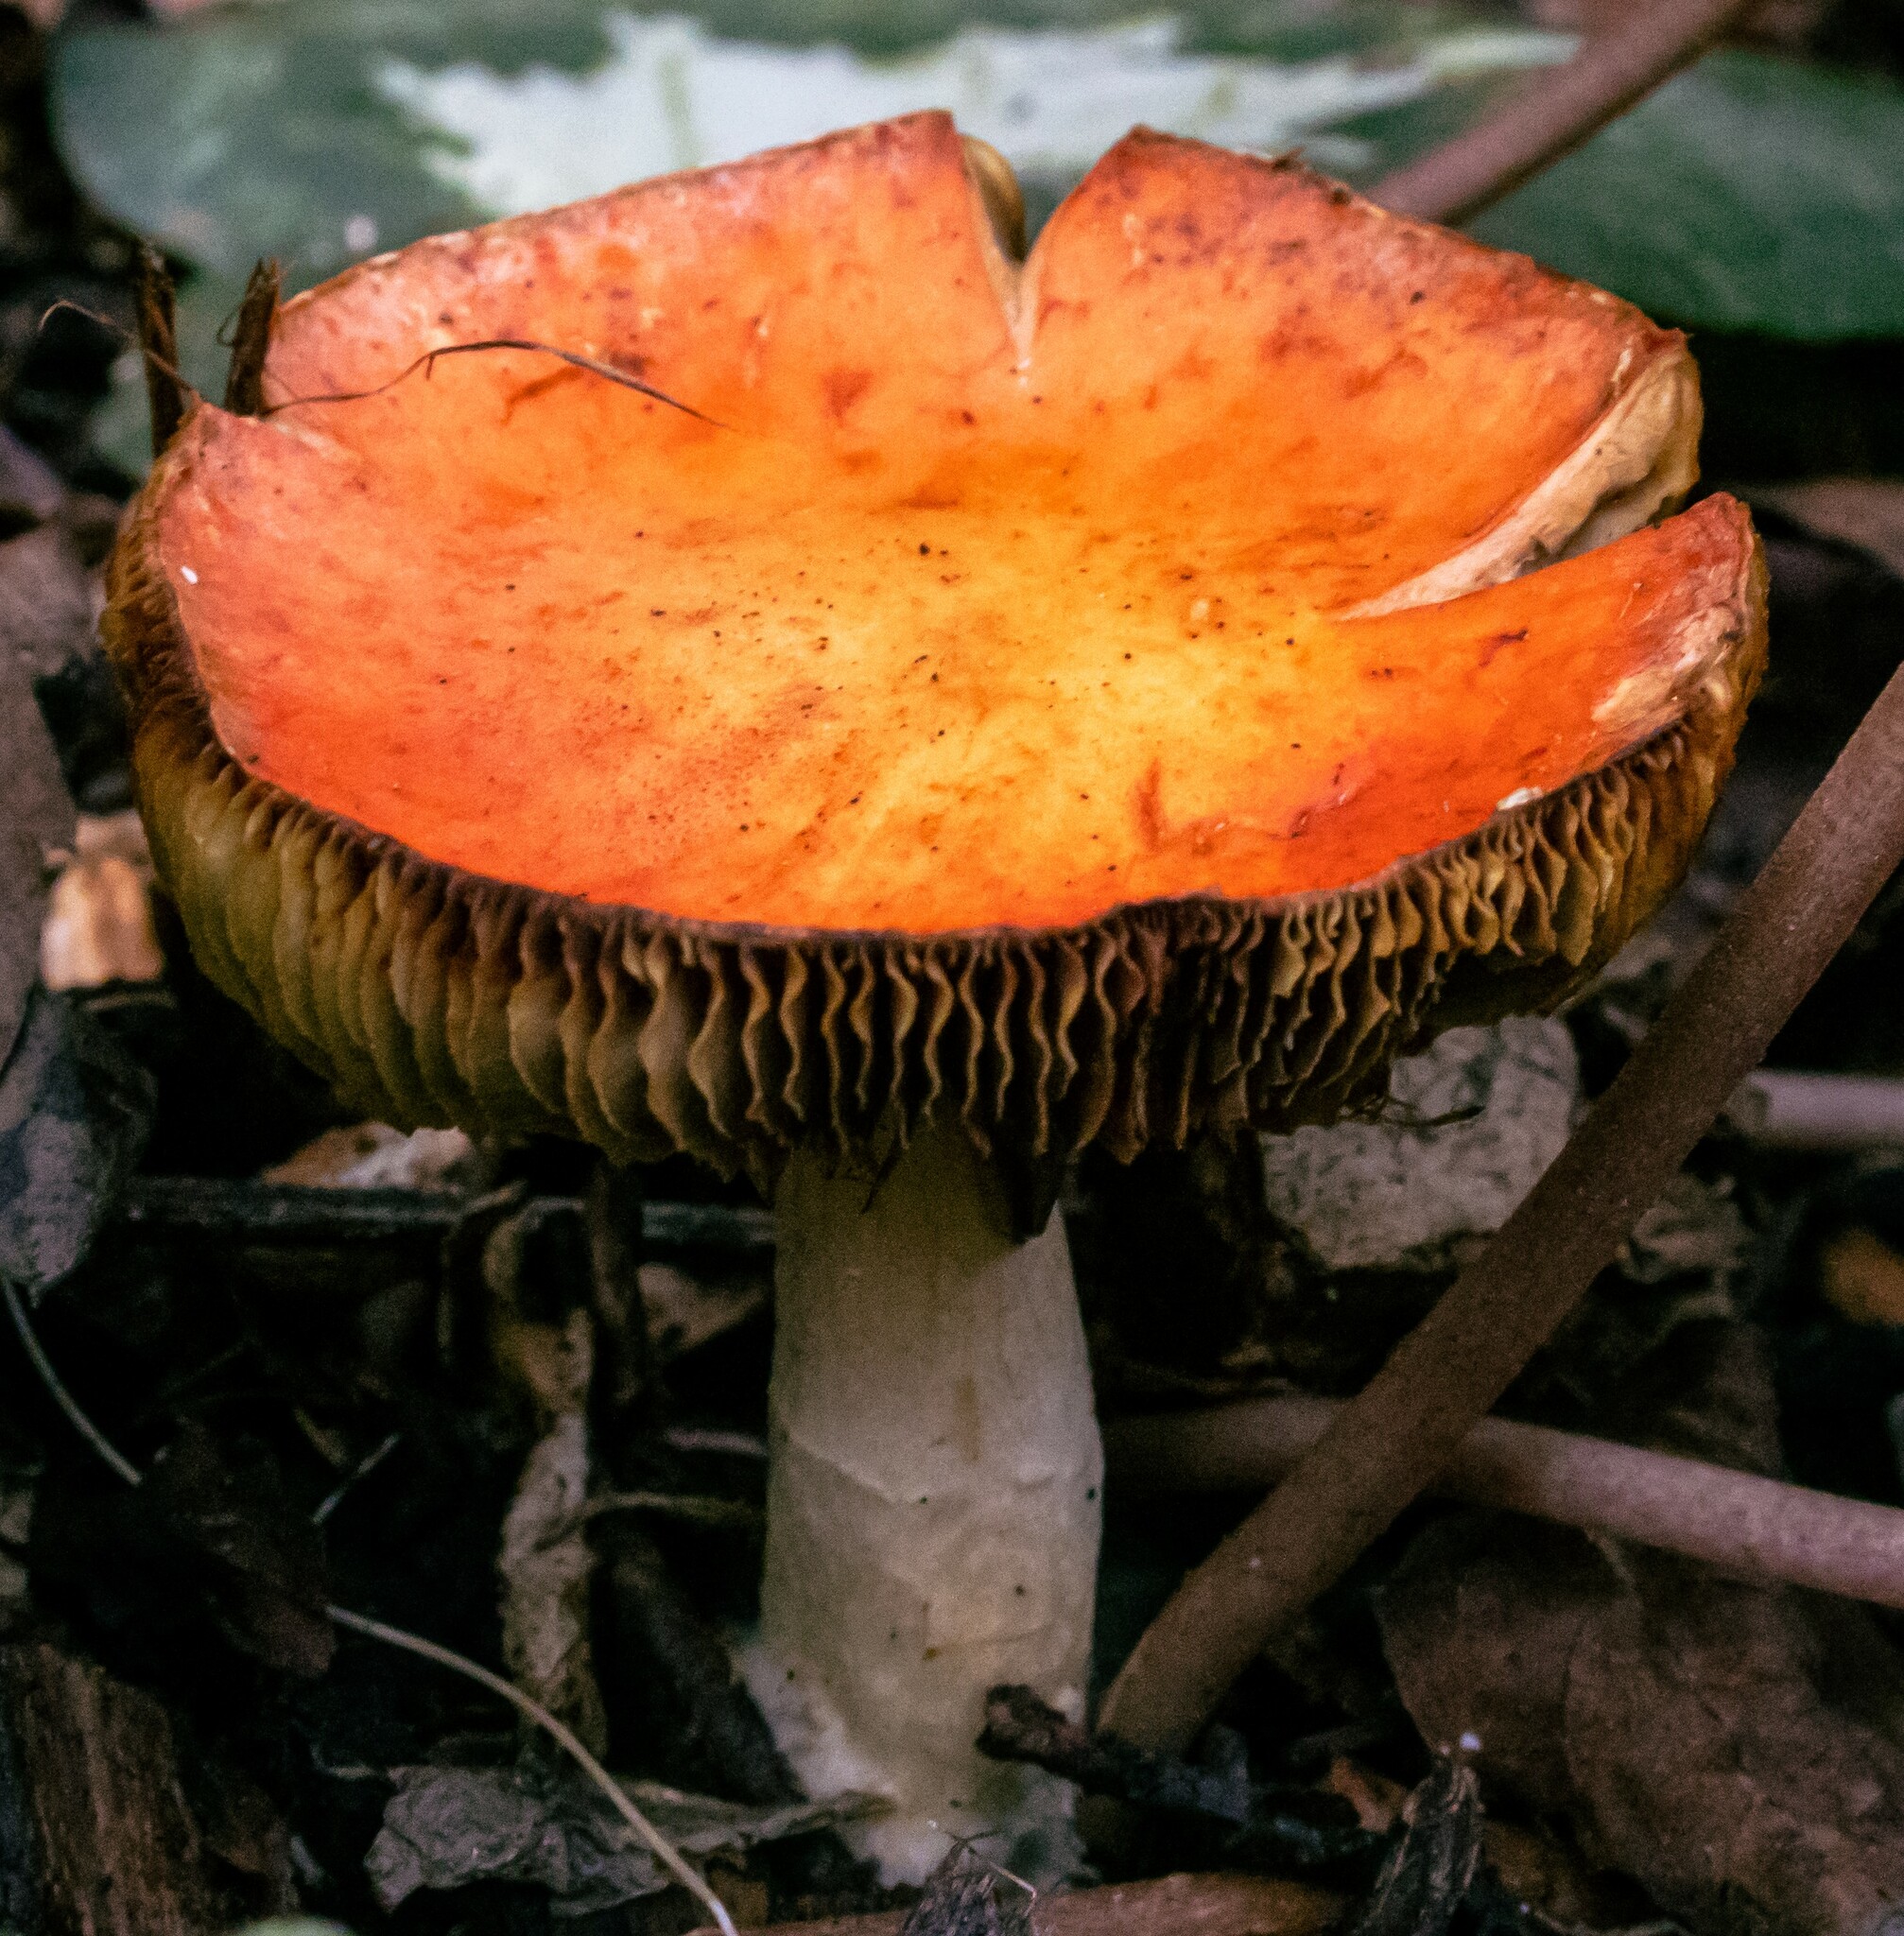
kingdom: Fungi
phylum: Basidiomycota
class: Agaricomycetes
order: Agaricales
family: Strophariaceae
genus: Leratiomyces
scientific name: Leratiomyces ceres
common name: Redlead roundhead
